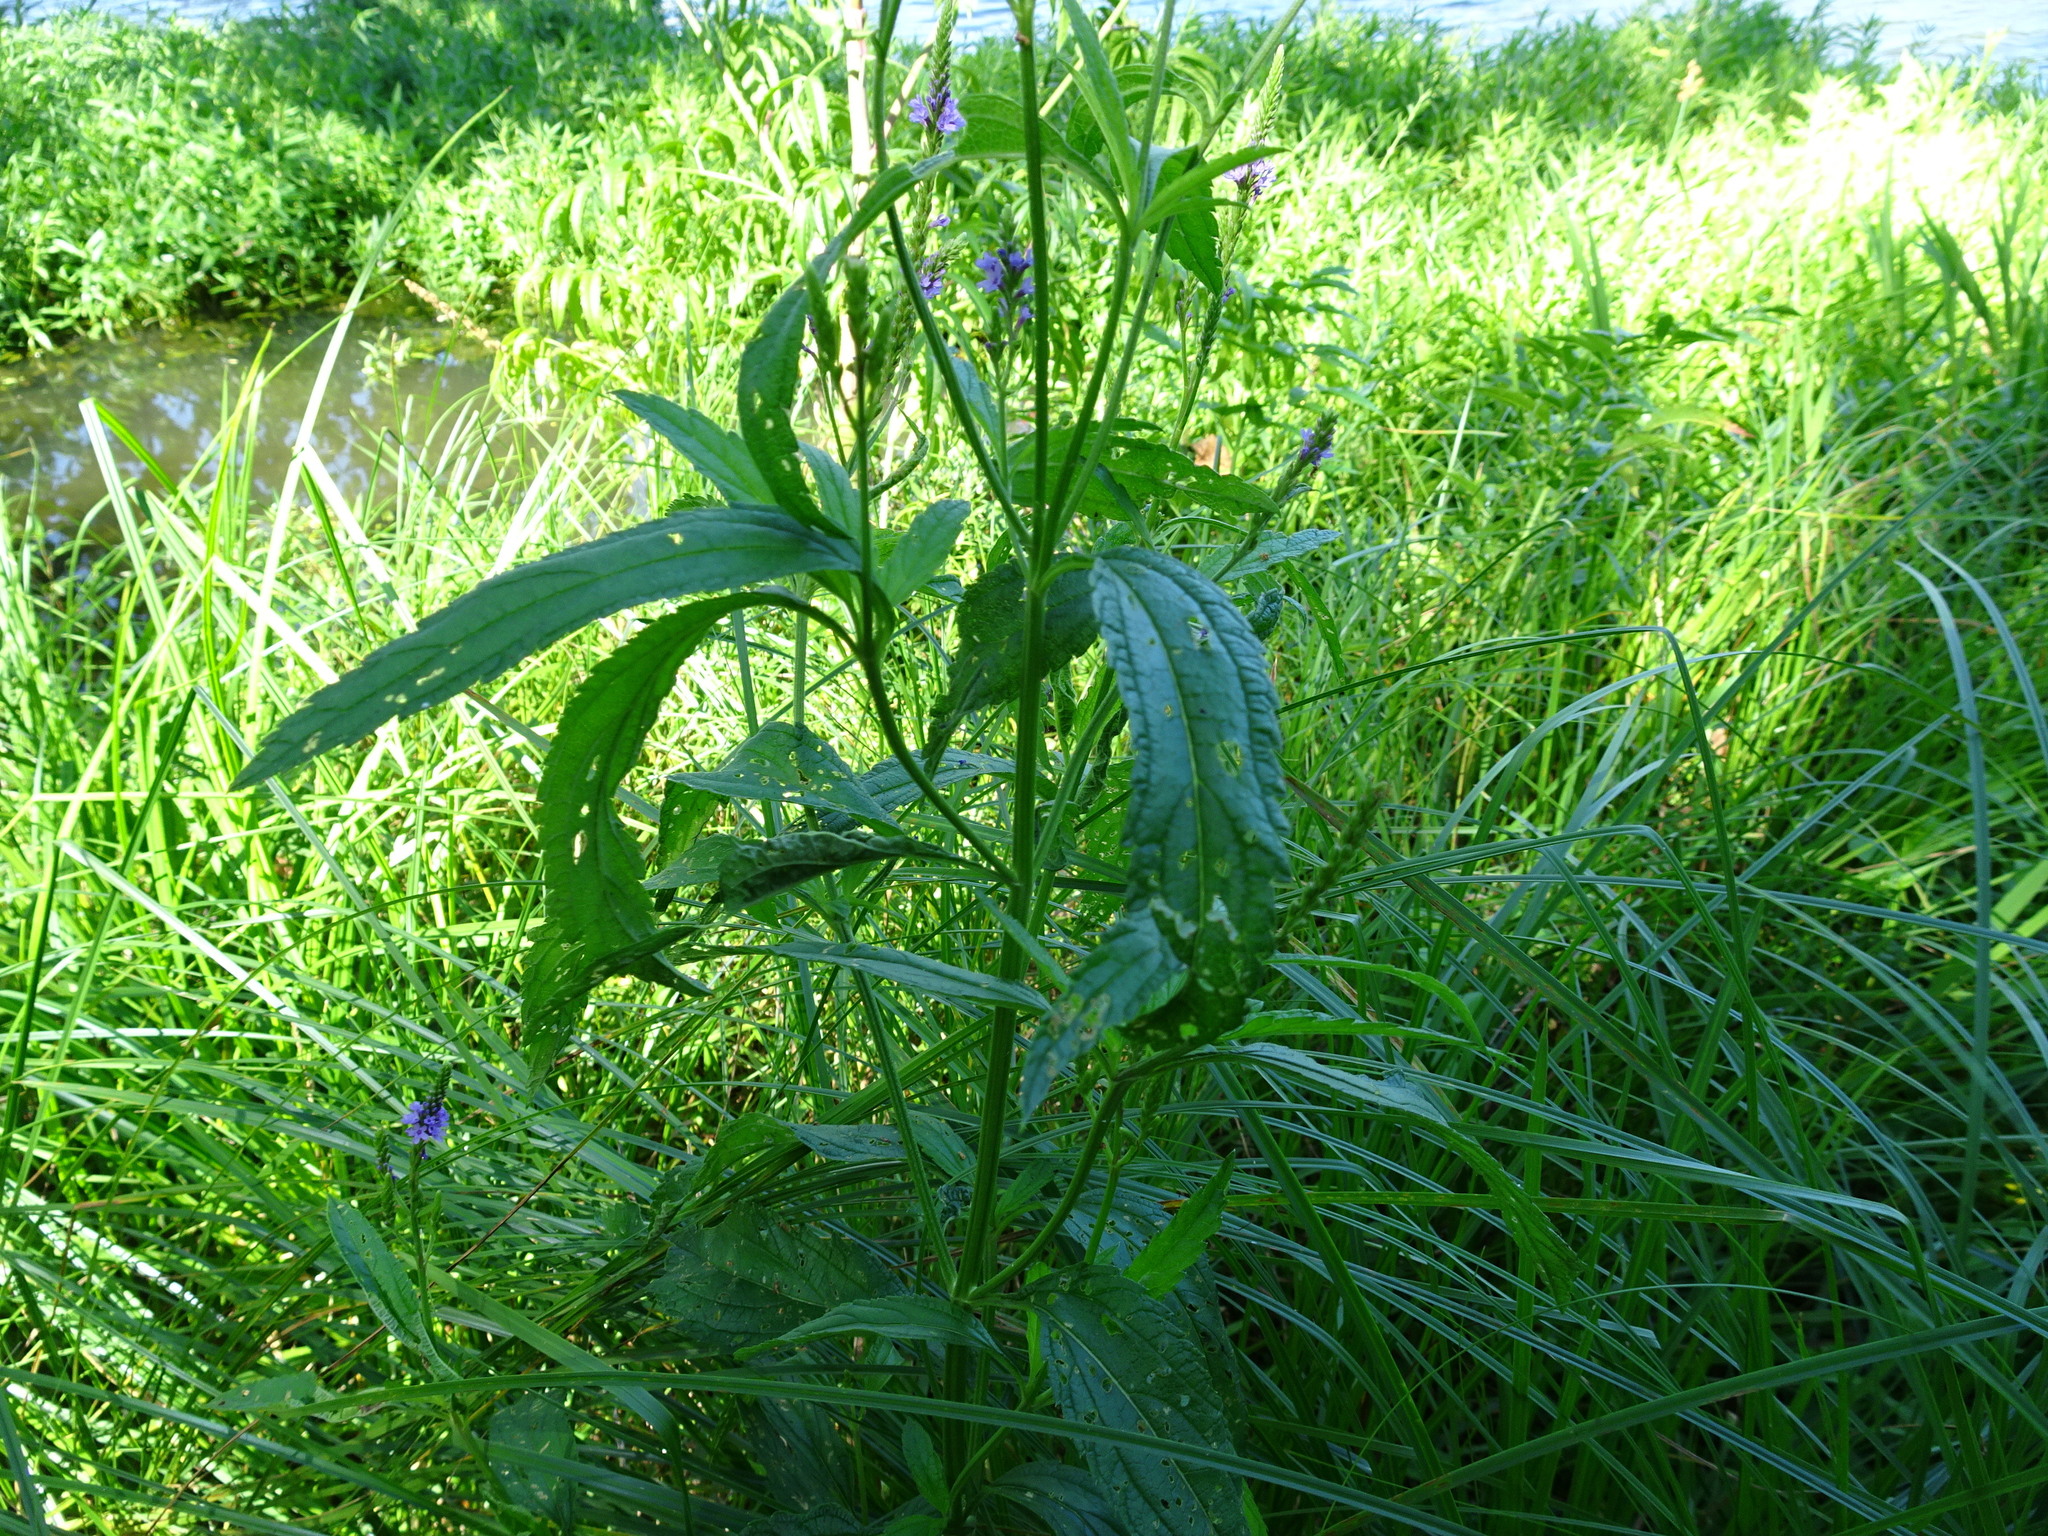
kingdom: Plantae
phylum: Tracheophyta
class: Magnoliopsida
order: Lamiales
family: Verbenaceae
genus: Verbena
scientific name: Verbena hastata
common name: American blue vervain
